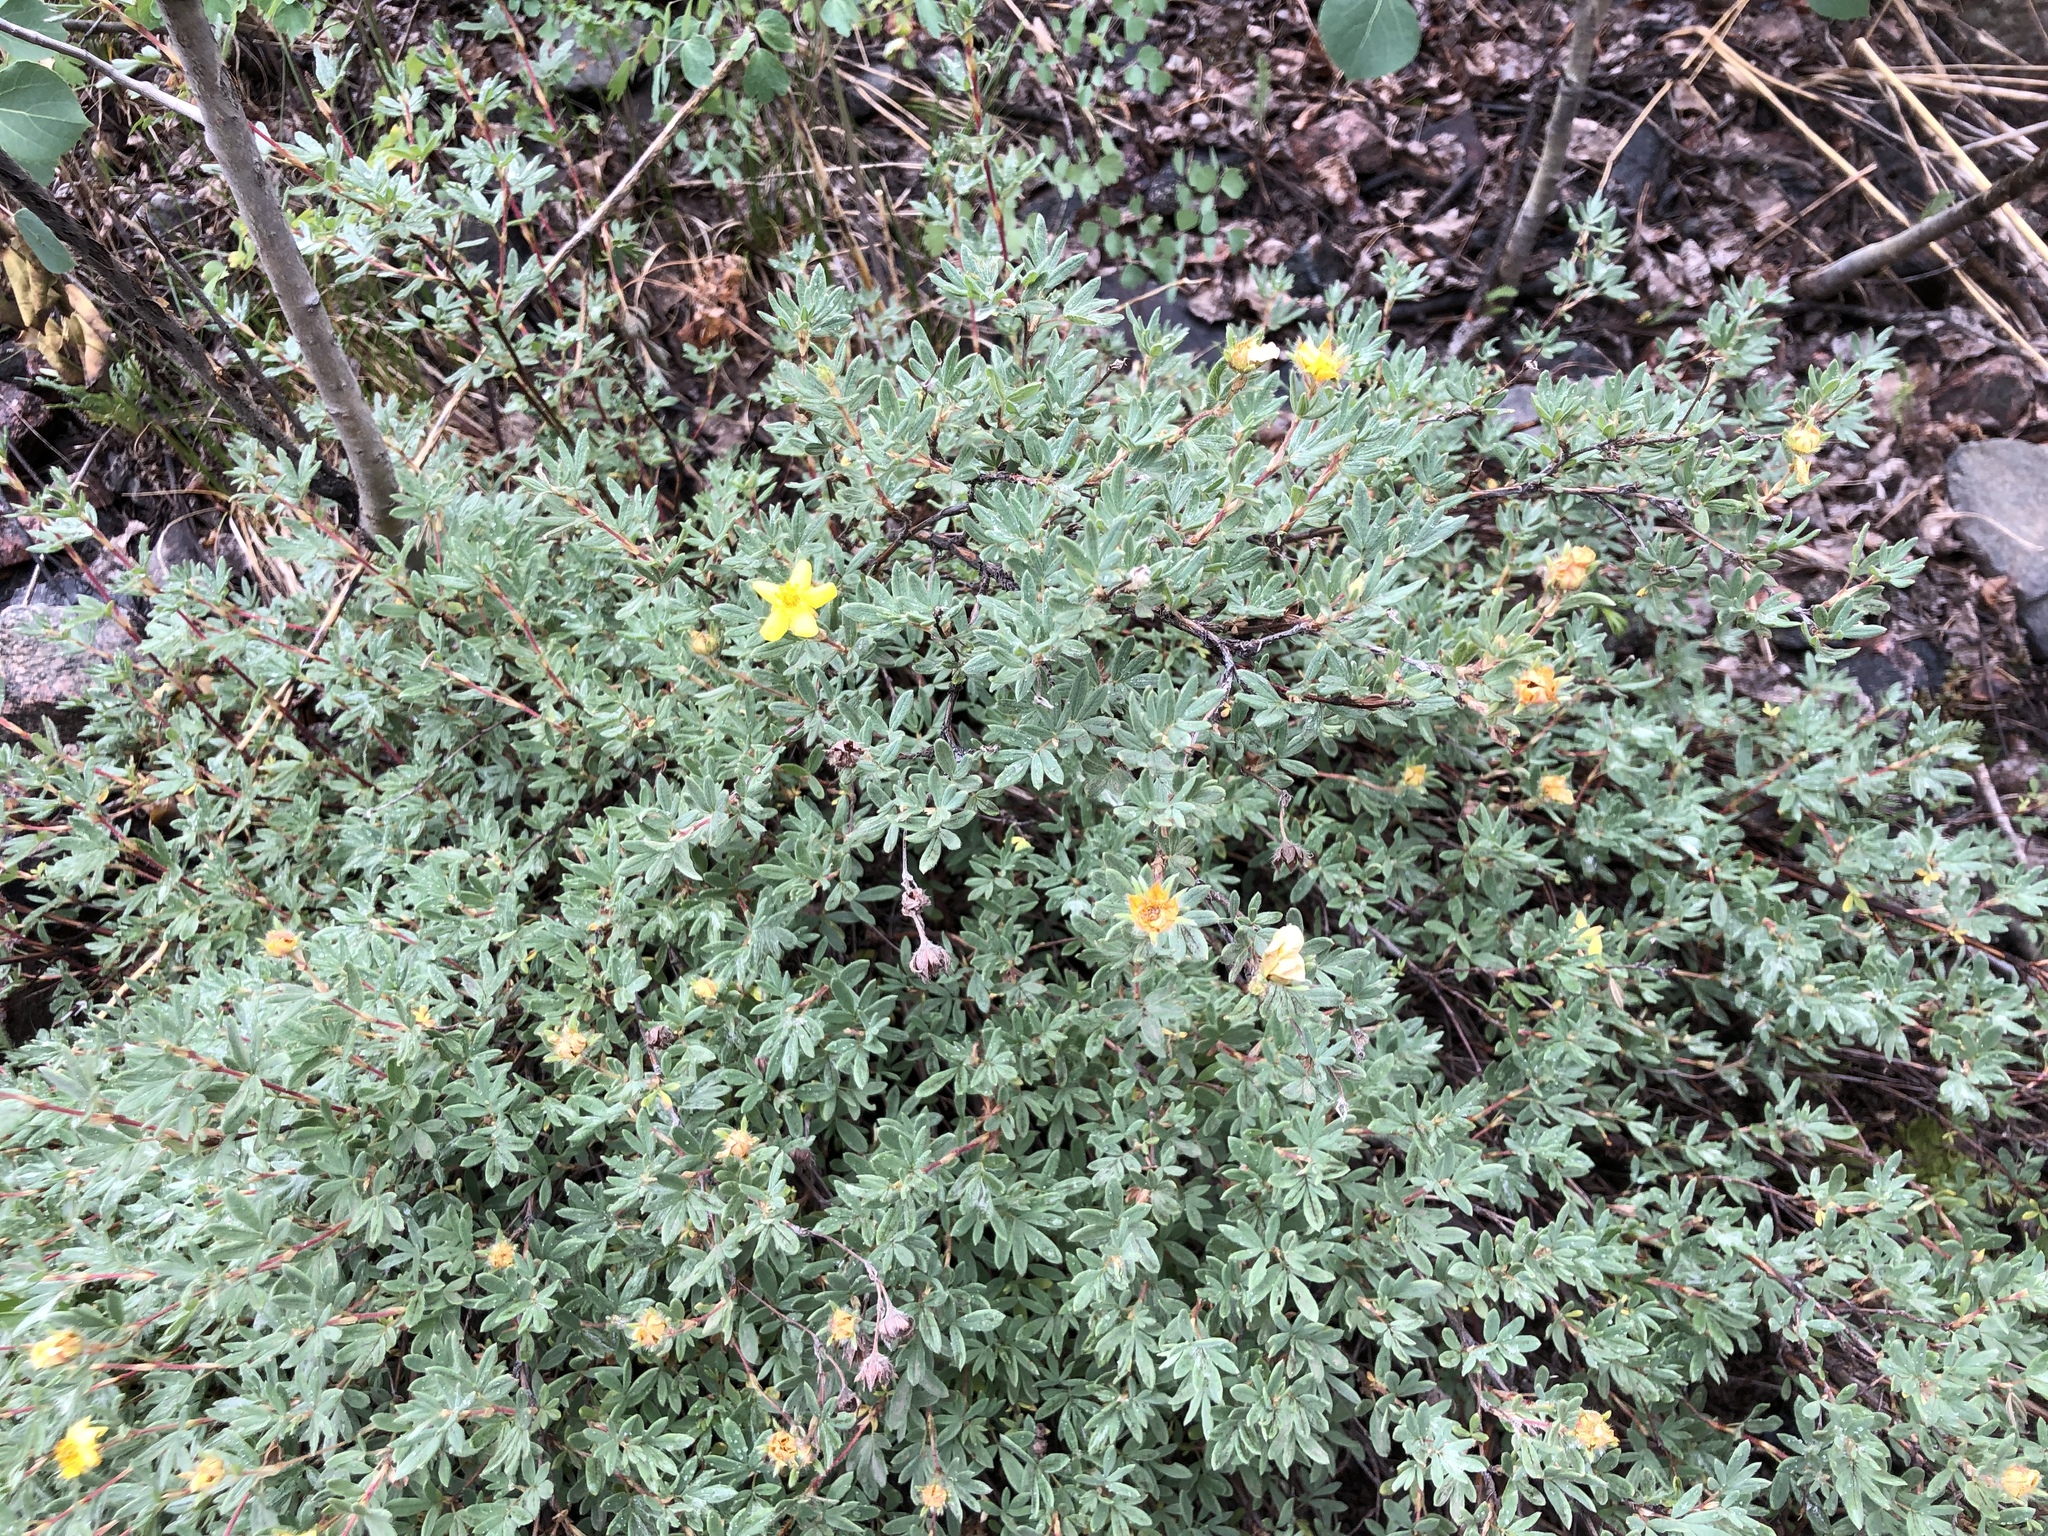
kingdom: Plantae
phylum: Tracheophyta
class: Magnoliopsida
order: Rosales
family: Rosaceae
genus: Dasiphora
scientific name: Dasiphora fruticosa
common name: Shrubby cinquefoil
